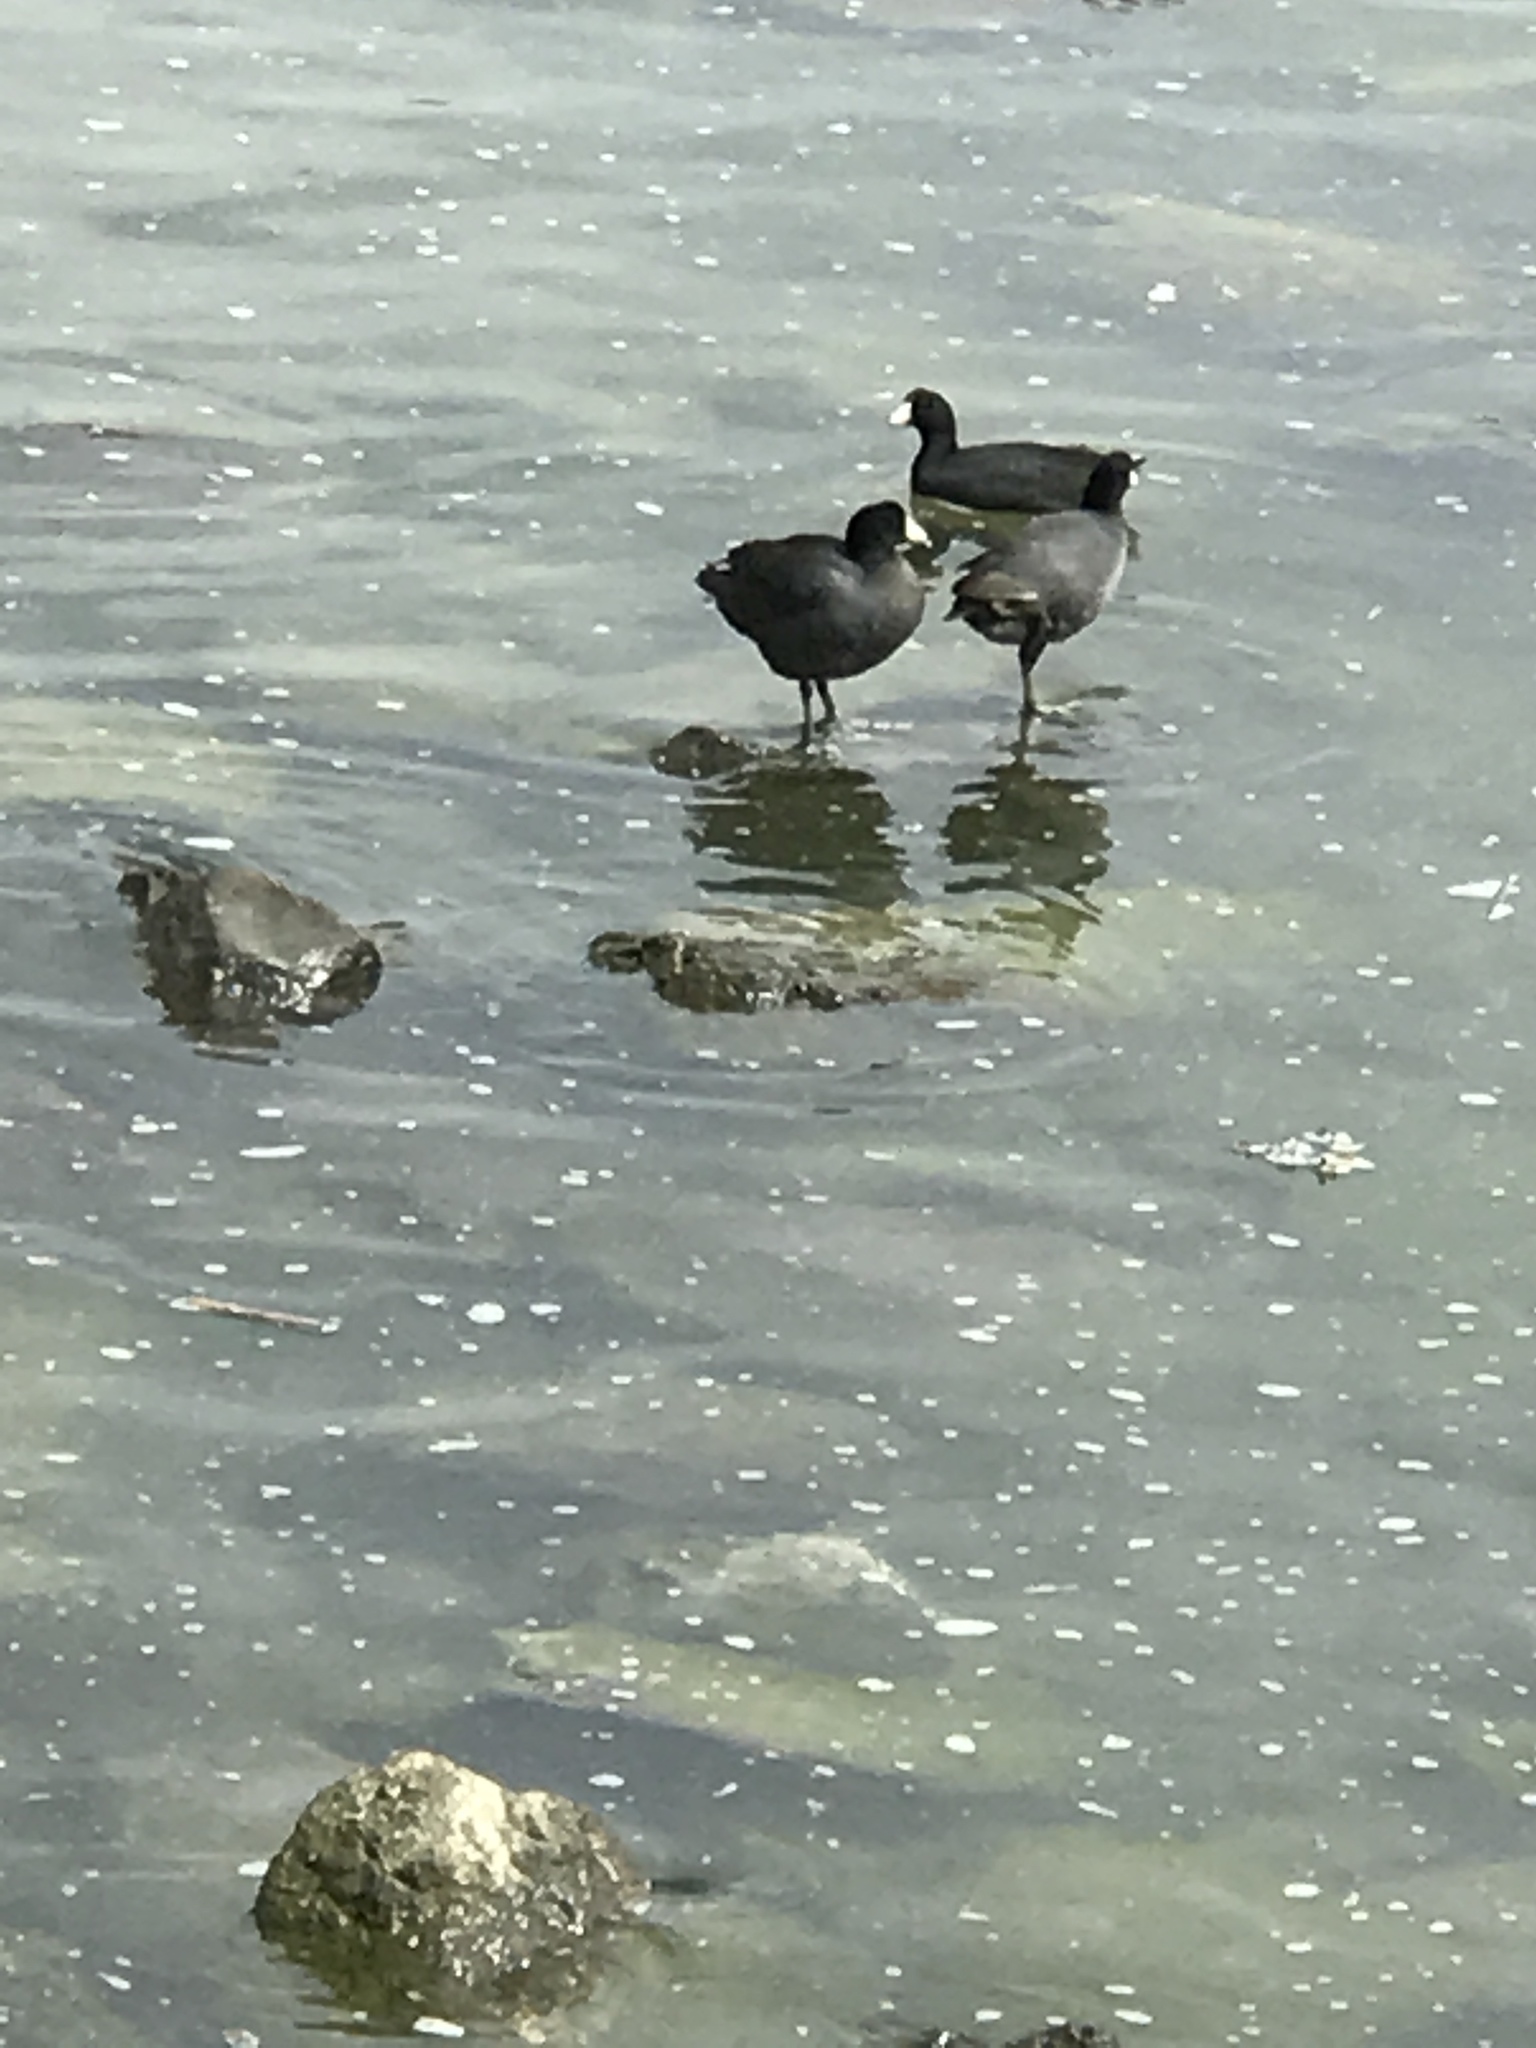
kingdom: Animalia
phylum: Chordata
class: Aves
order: Gruiformes
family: Rallidae
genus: Fulica
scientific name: Fulica americana
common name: American coot
